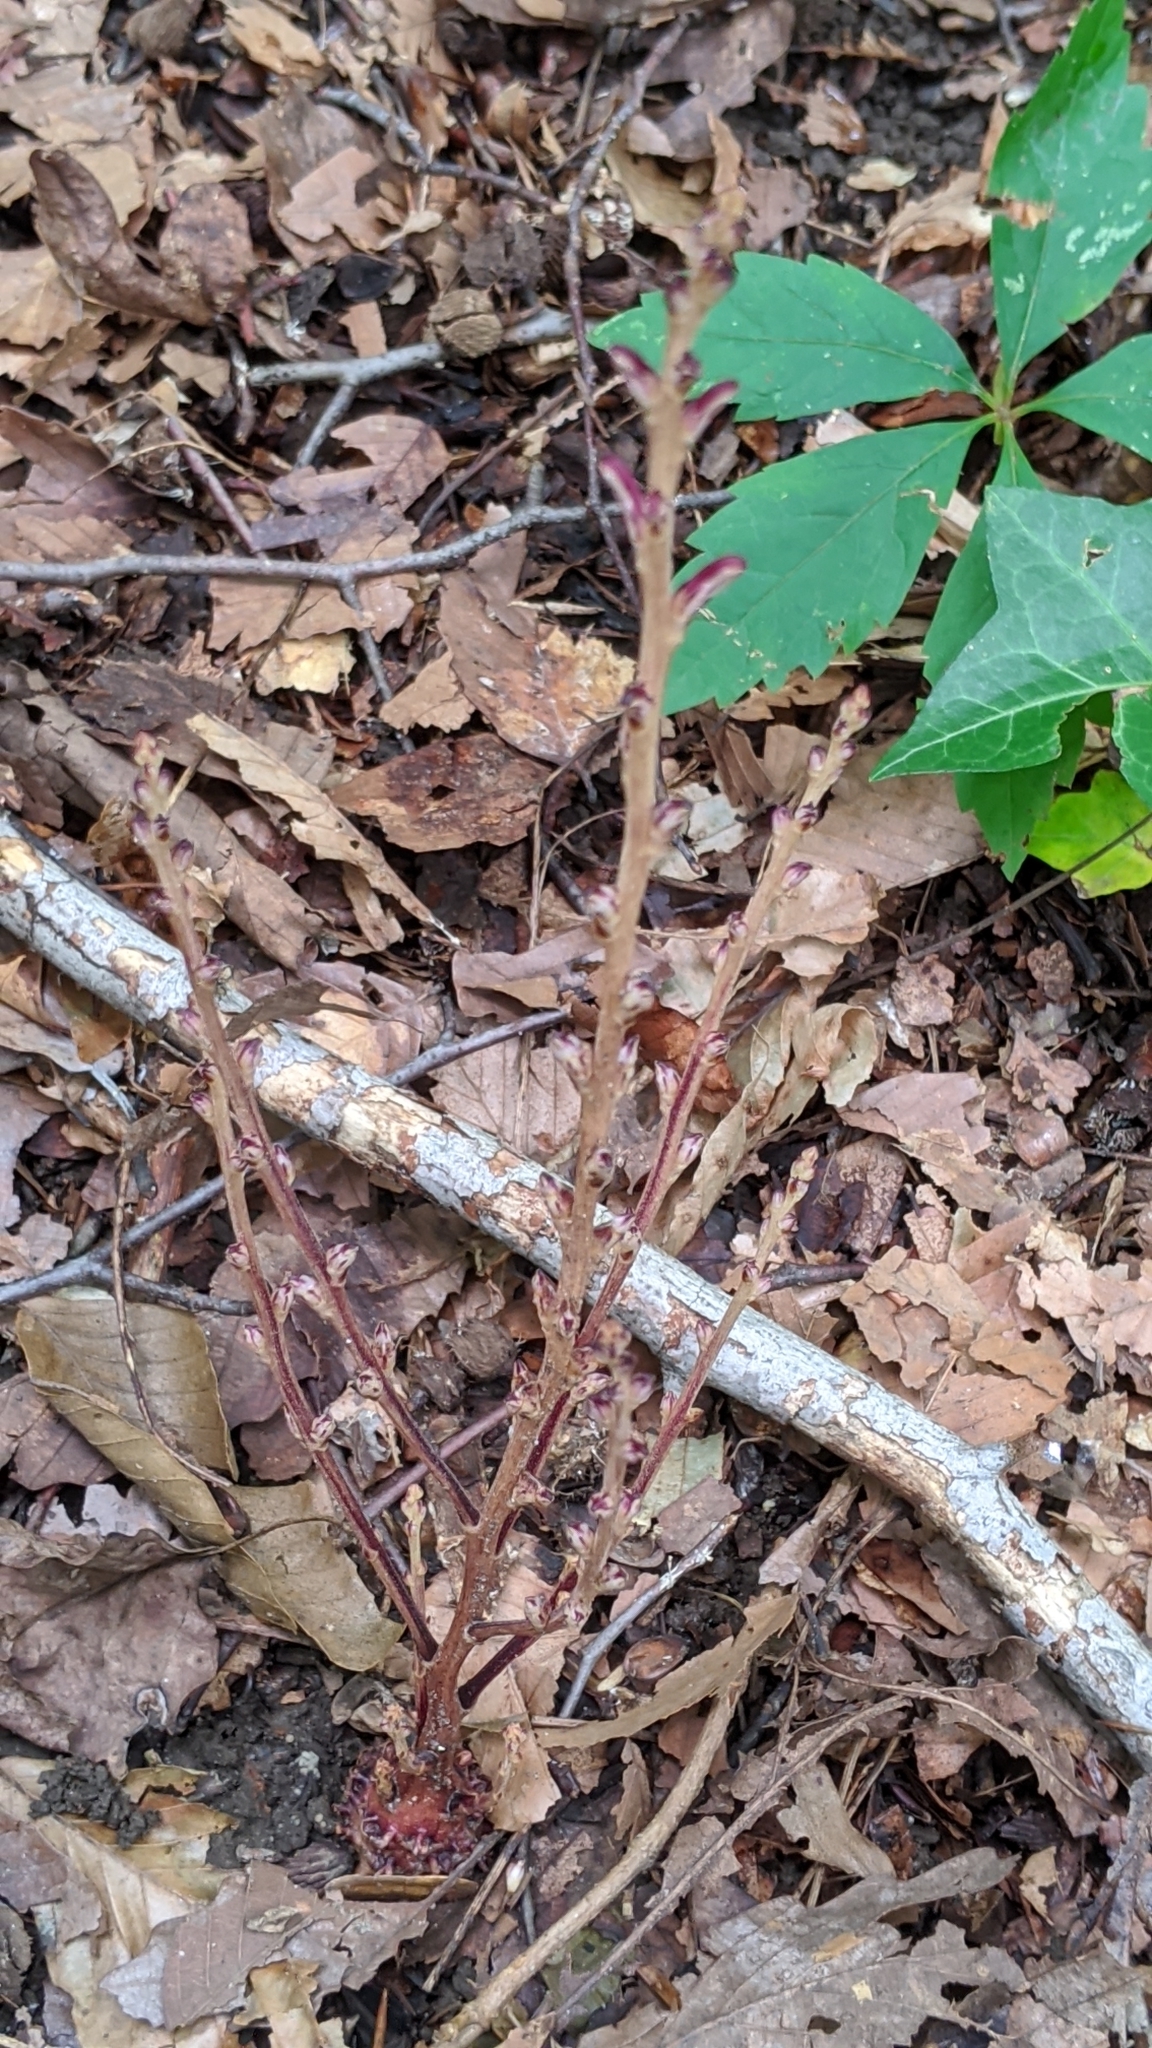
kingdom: Plantae
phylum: Tracheophyta
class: Magnoliopsida
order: Lamiales
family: Orobanchaceae
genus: Epifagus
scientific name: Epifagus virginiana
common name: Beechdrops
